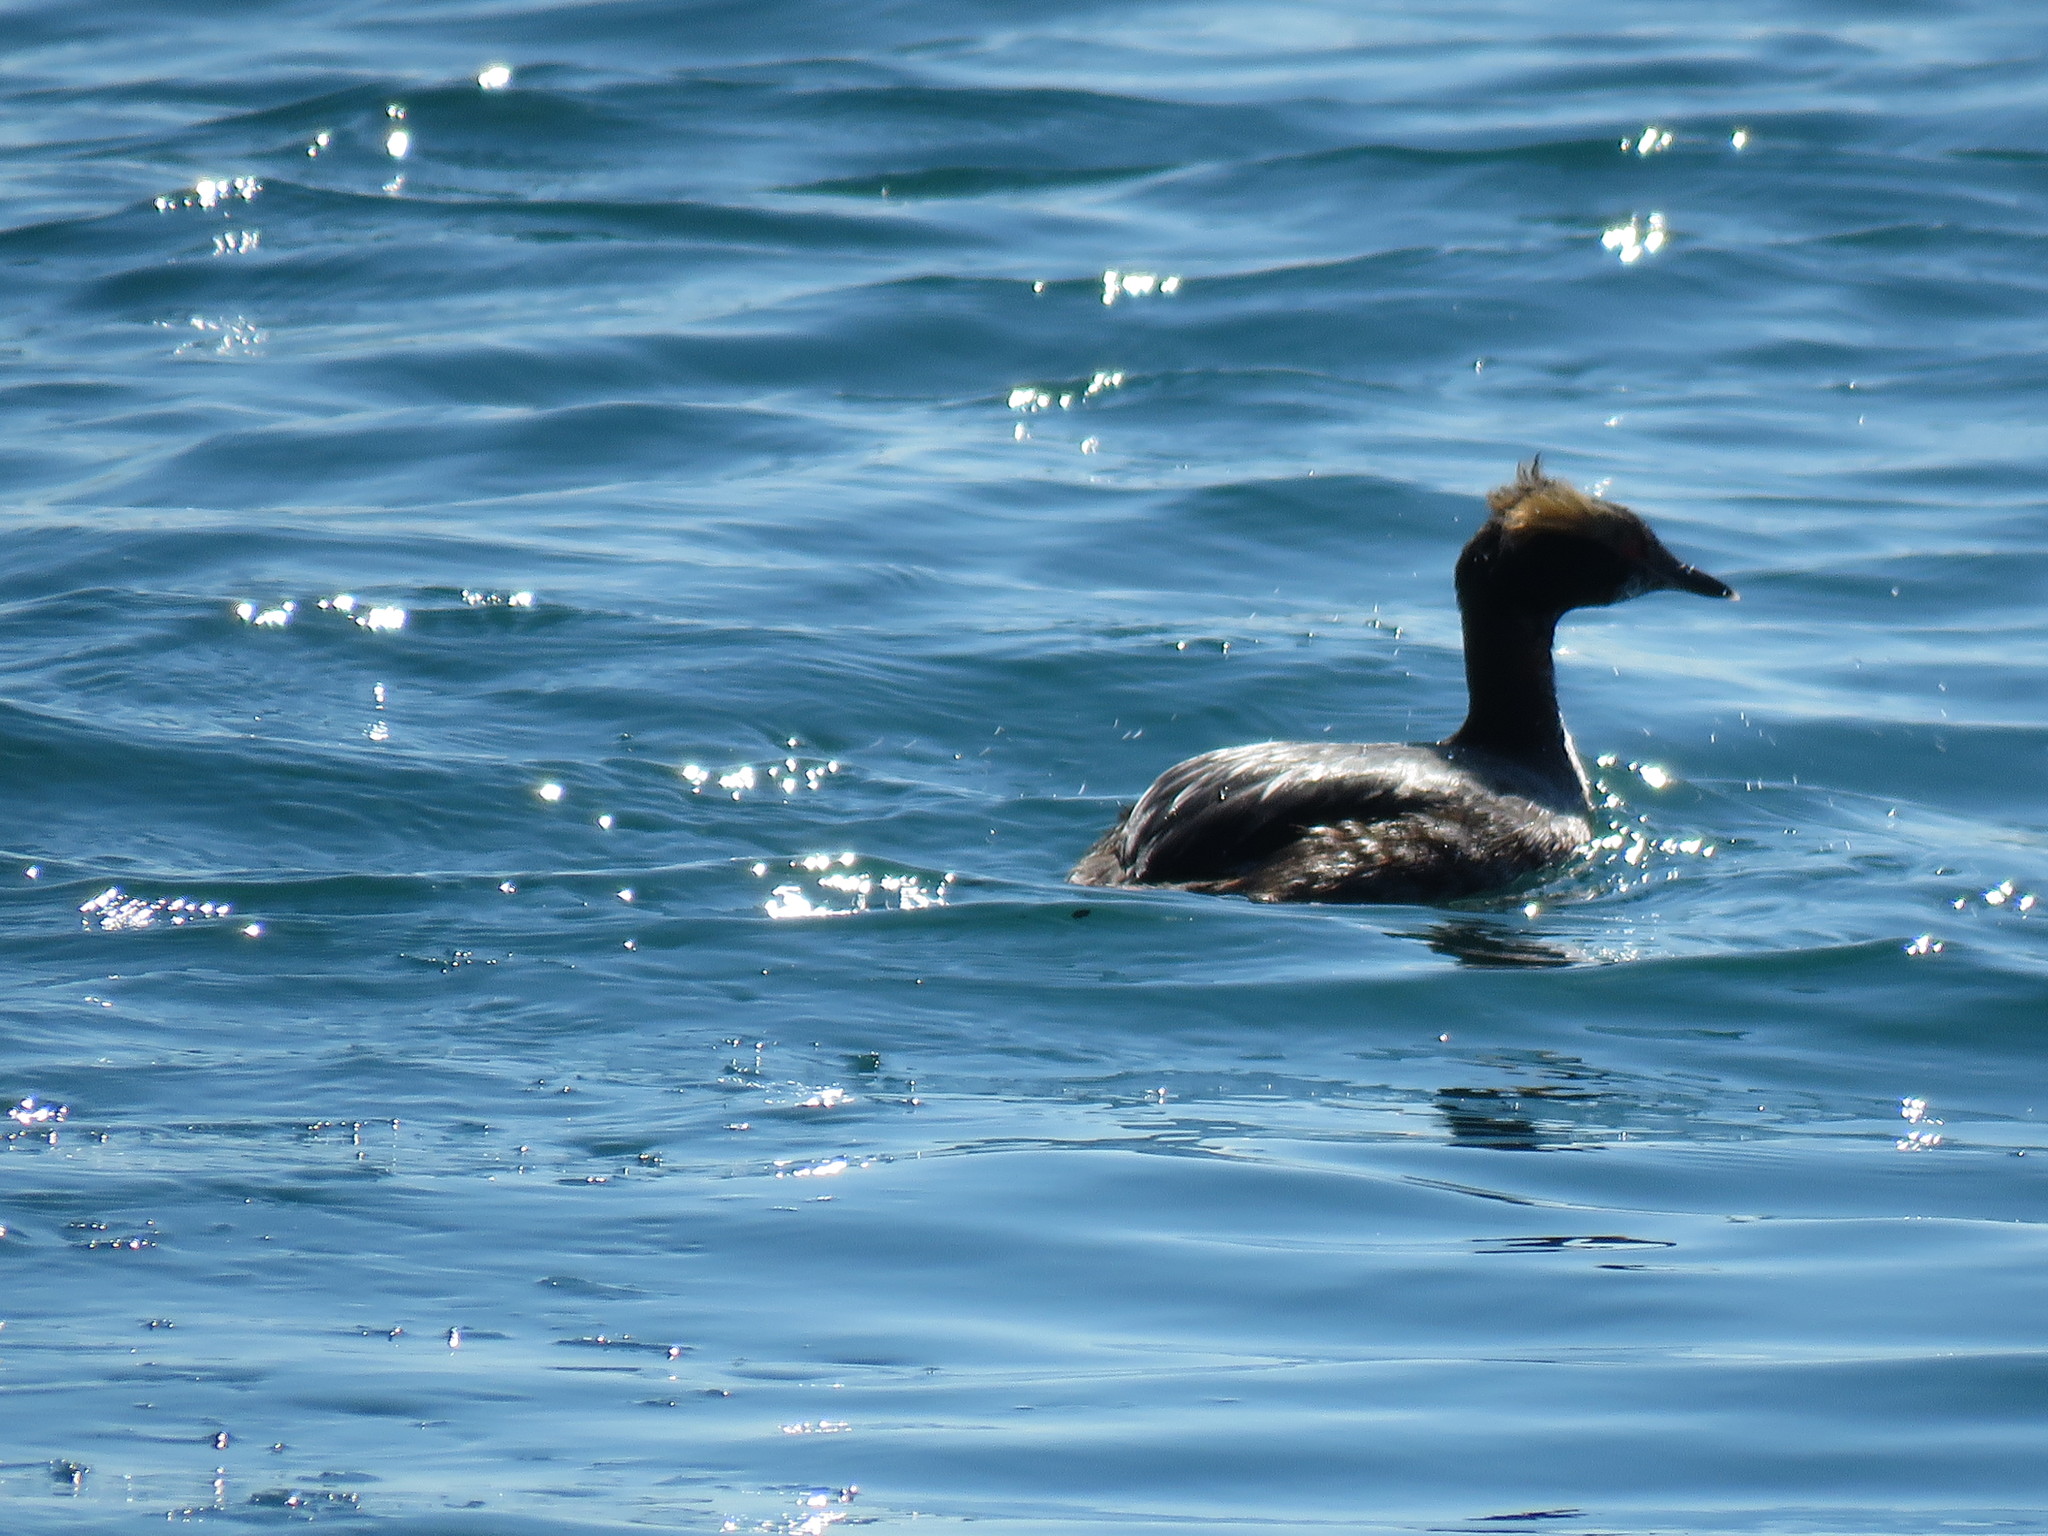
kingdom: Animalia
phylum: Chordata
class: Aves
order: Podicipediformes
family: Podicipedidae
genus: Podiceps
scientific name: Podiceps auritus
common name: Horned grebe
